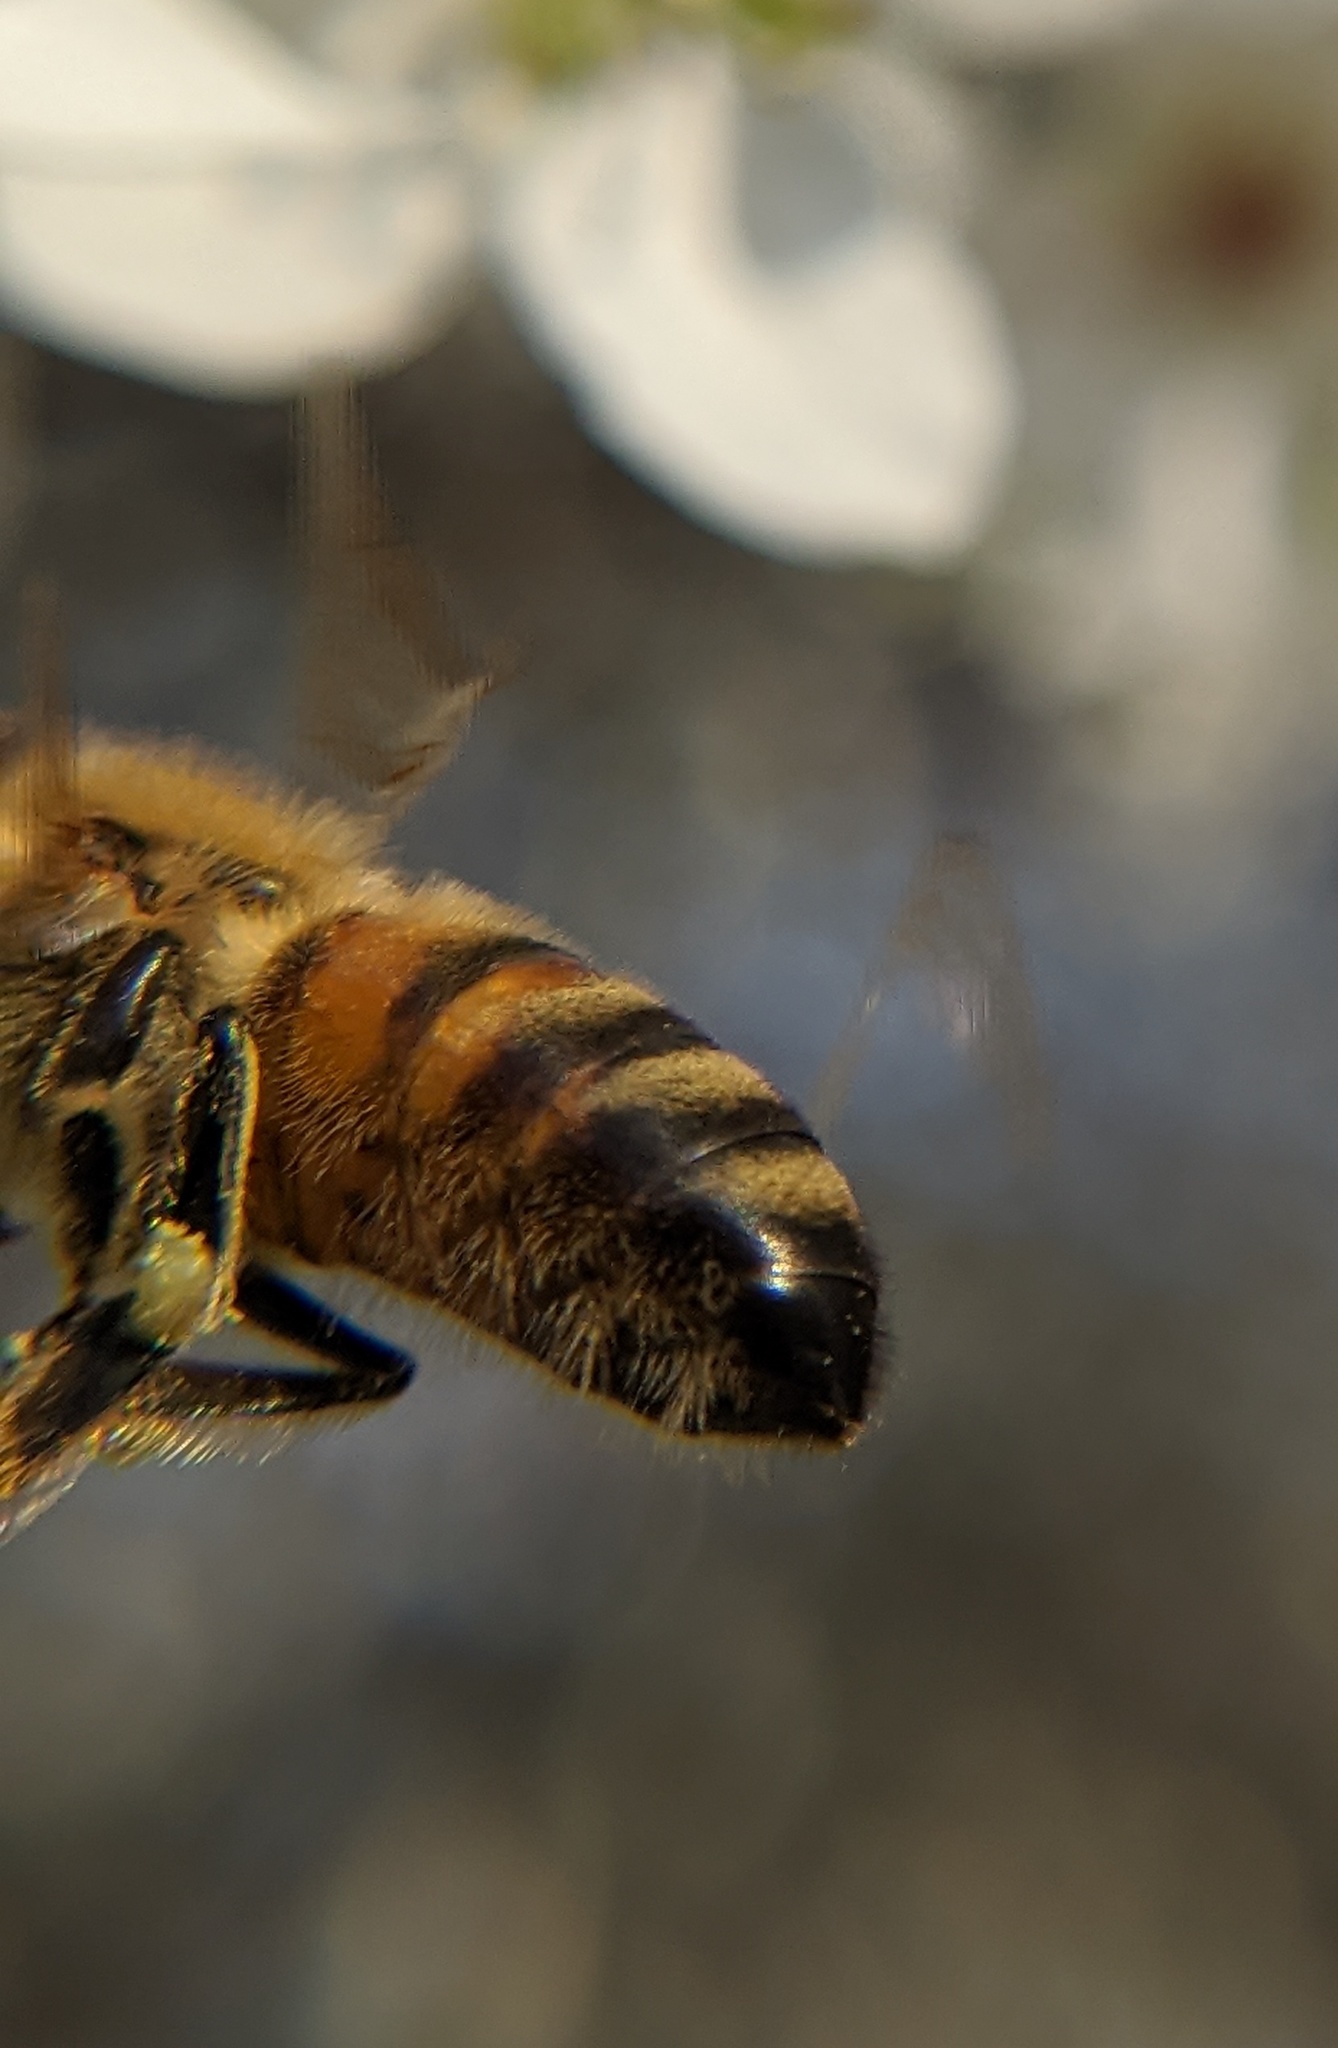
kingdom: Animalia
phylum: Arthropoda
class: Insecta
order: Hymenoptera
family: Apidae
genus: Apis
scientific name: Apis mellifera
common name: Honey bee
